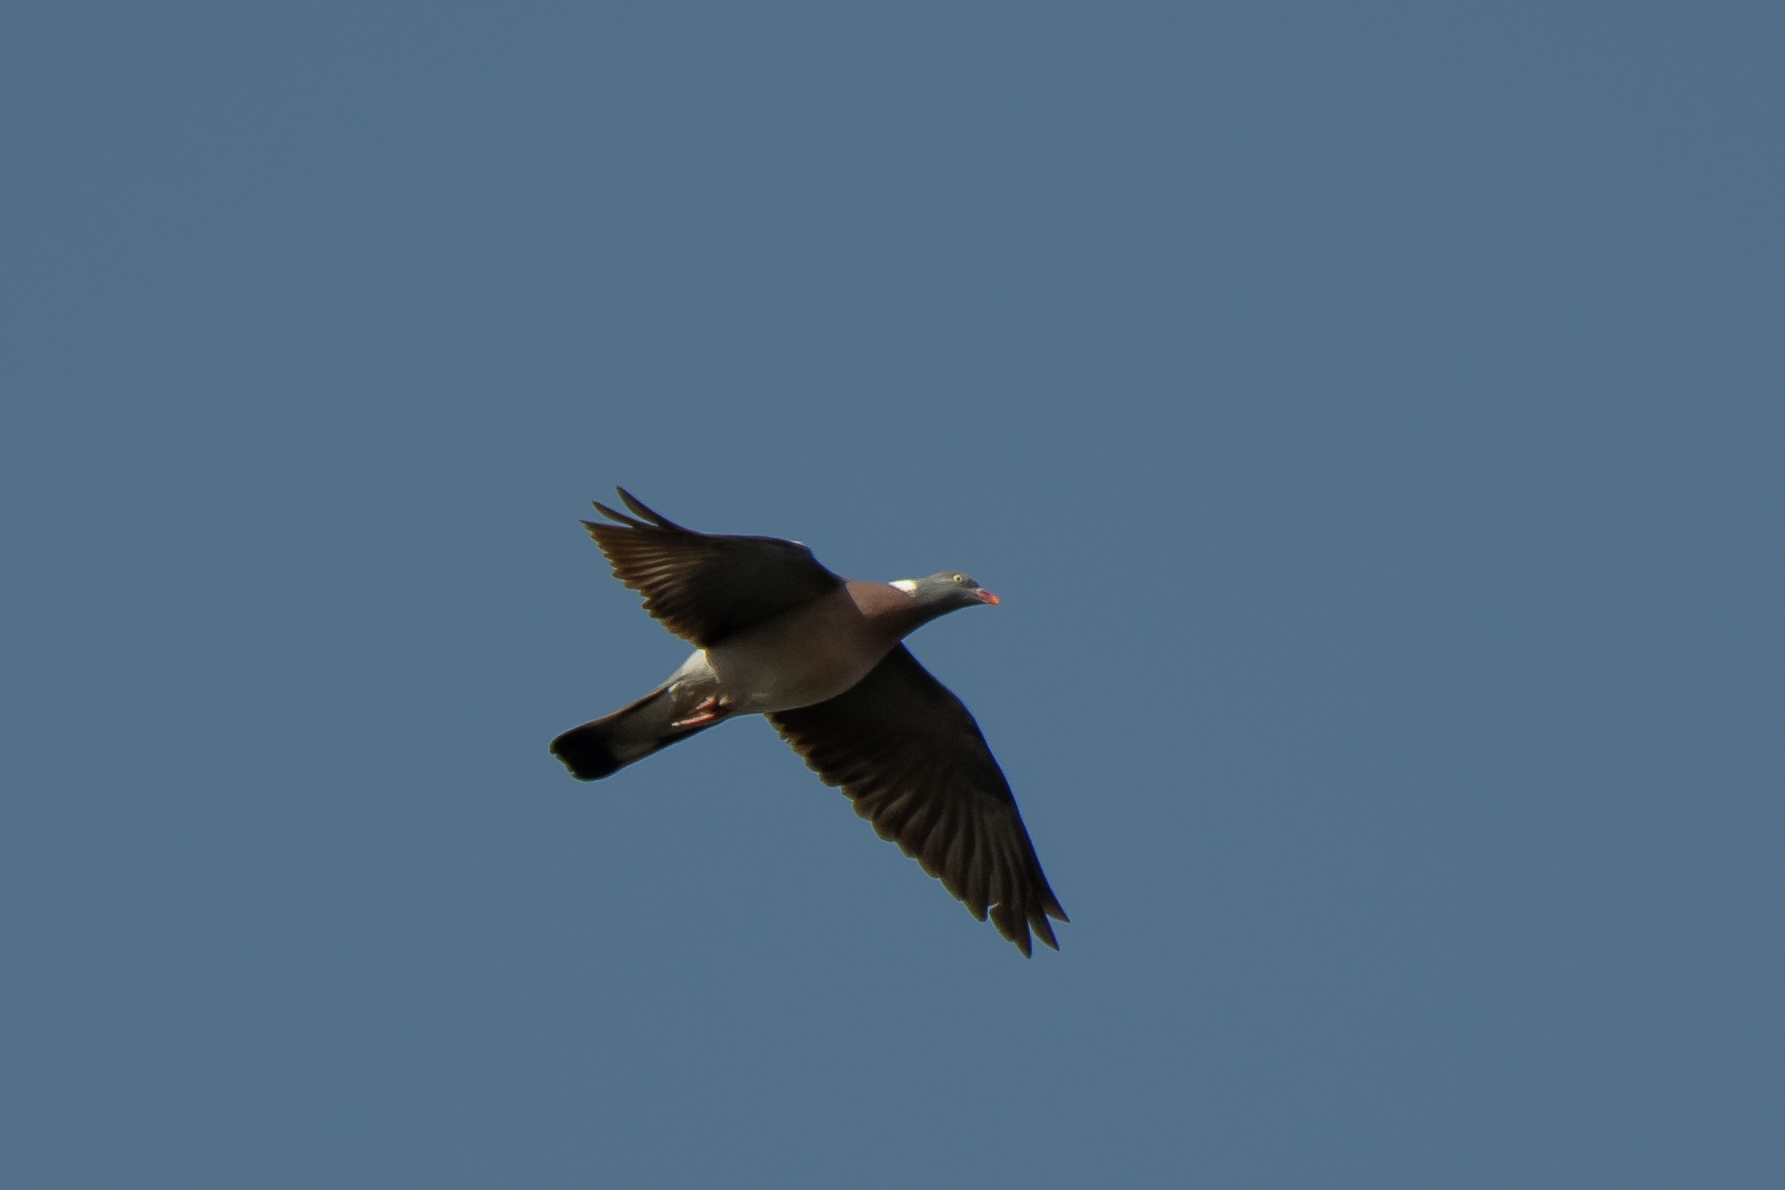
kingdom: Animalia
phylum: Chordata
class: Aves
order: Columbiformes
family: Columbidae
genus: Columba
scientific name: Columba palumbus
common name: Common wood pigeon
